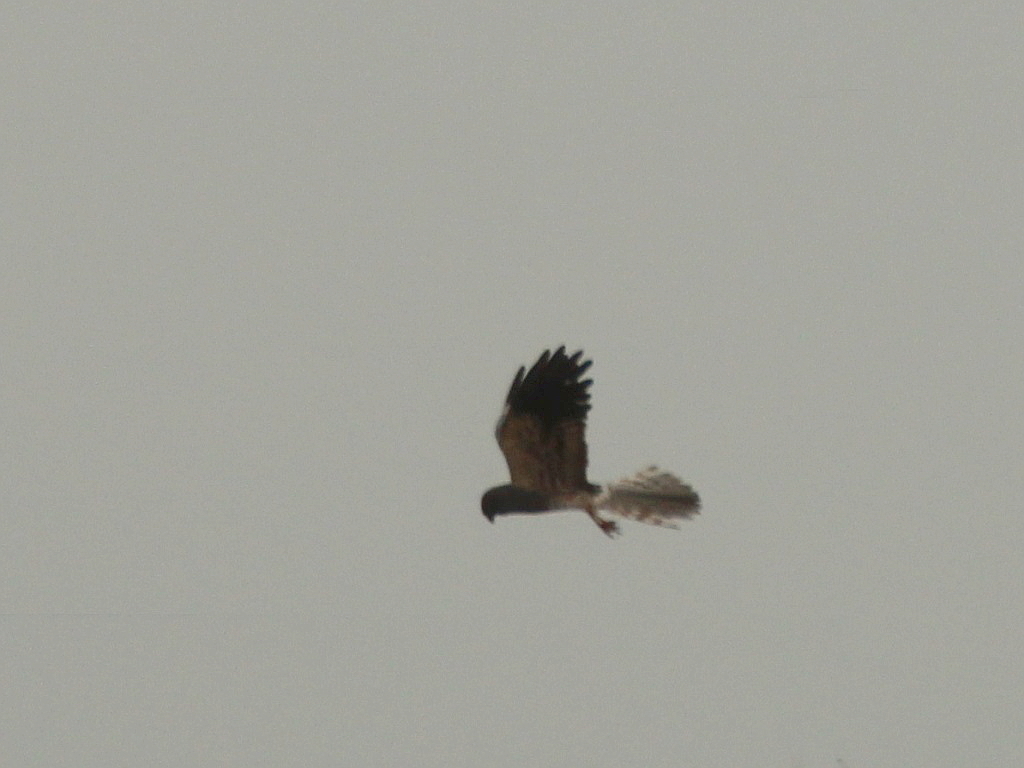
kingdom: Animalia
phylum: Chordata
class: Aves
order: Accipitriformes
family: Accipitridae
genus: Circus
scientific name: Circus pygargus
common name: Montagu's harrier
